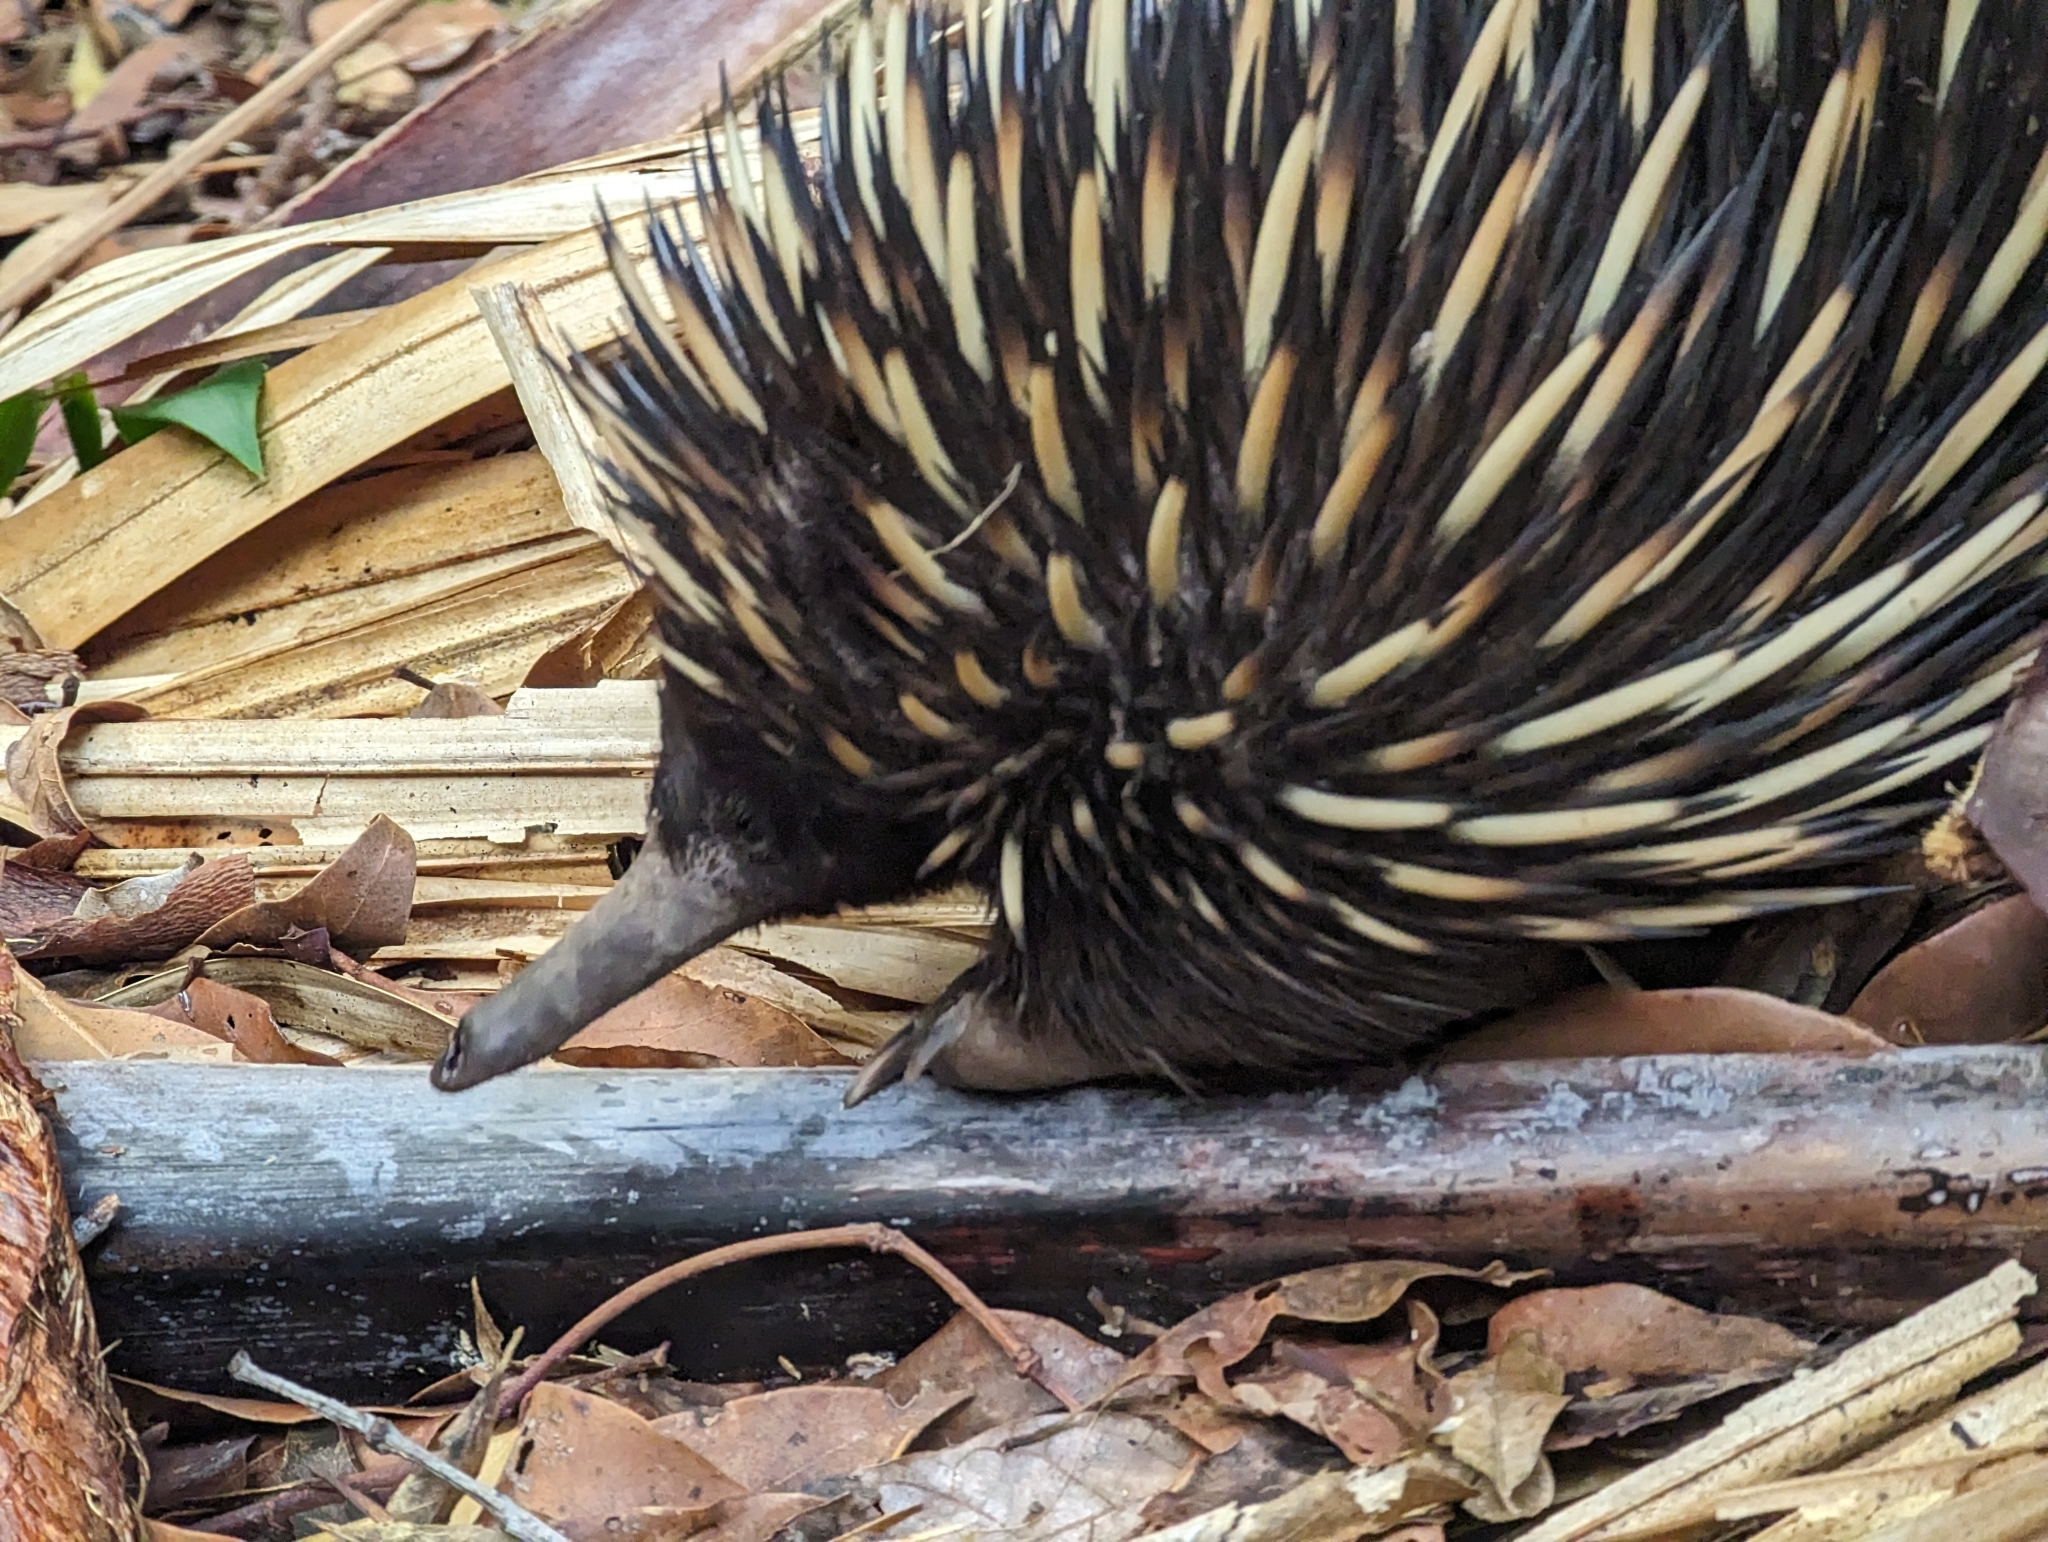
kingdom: Animalia
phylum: Chordata
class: Mammalia
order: Monotremata
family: Tachyglossidae
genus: Tachyglossus
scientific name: Tachyglossus aculeatus
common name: Short-beaked echidna
